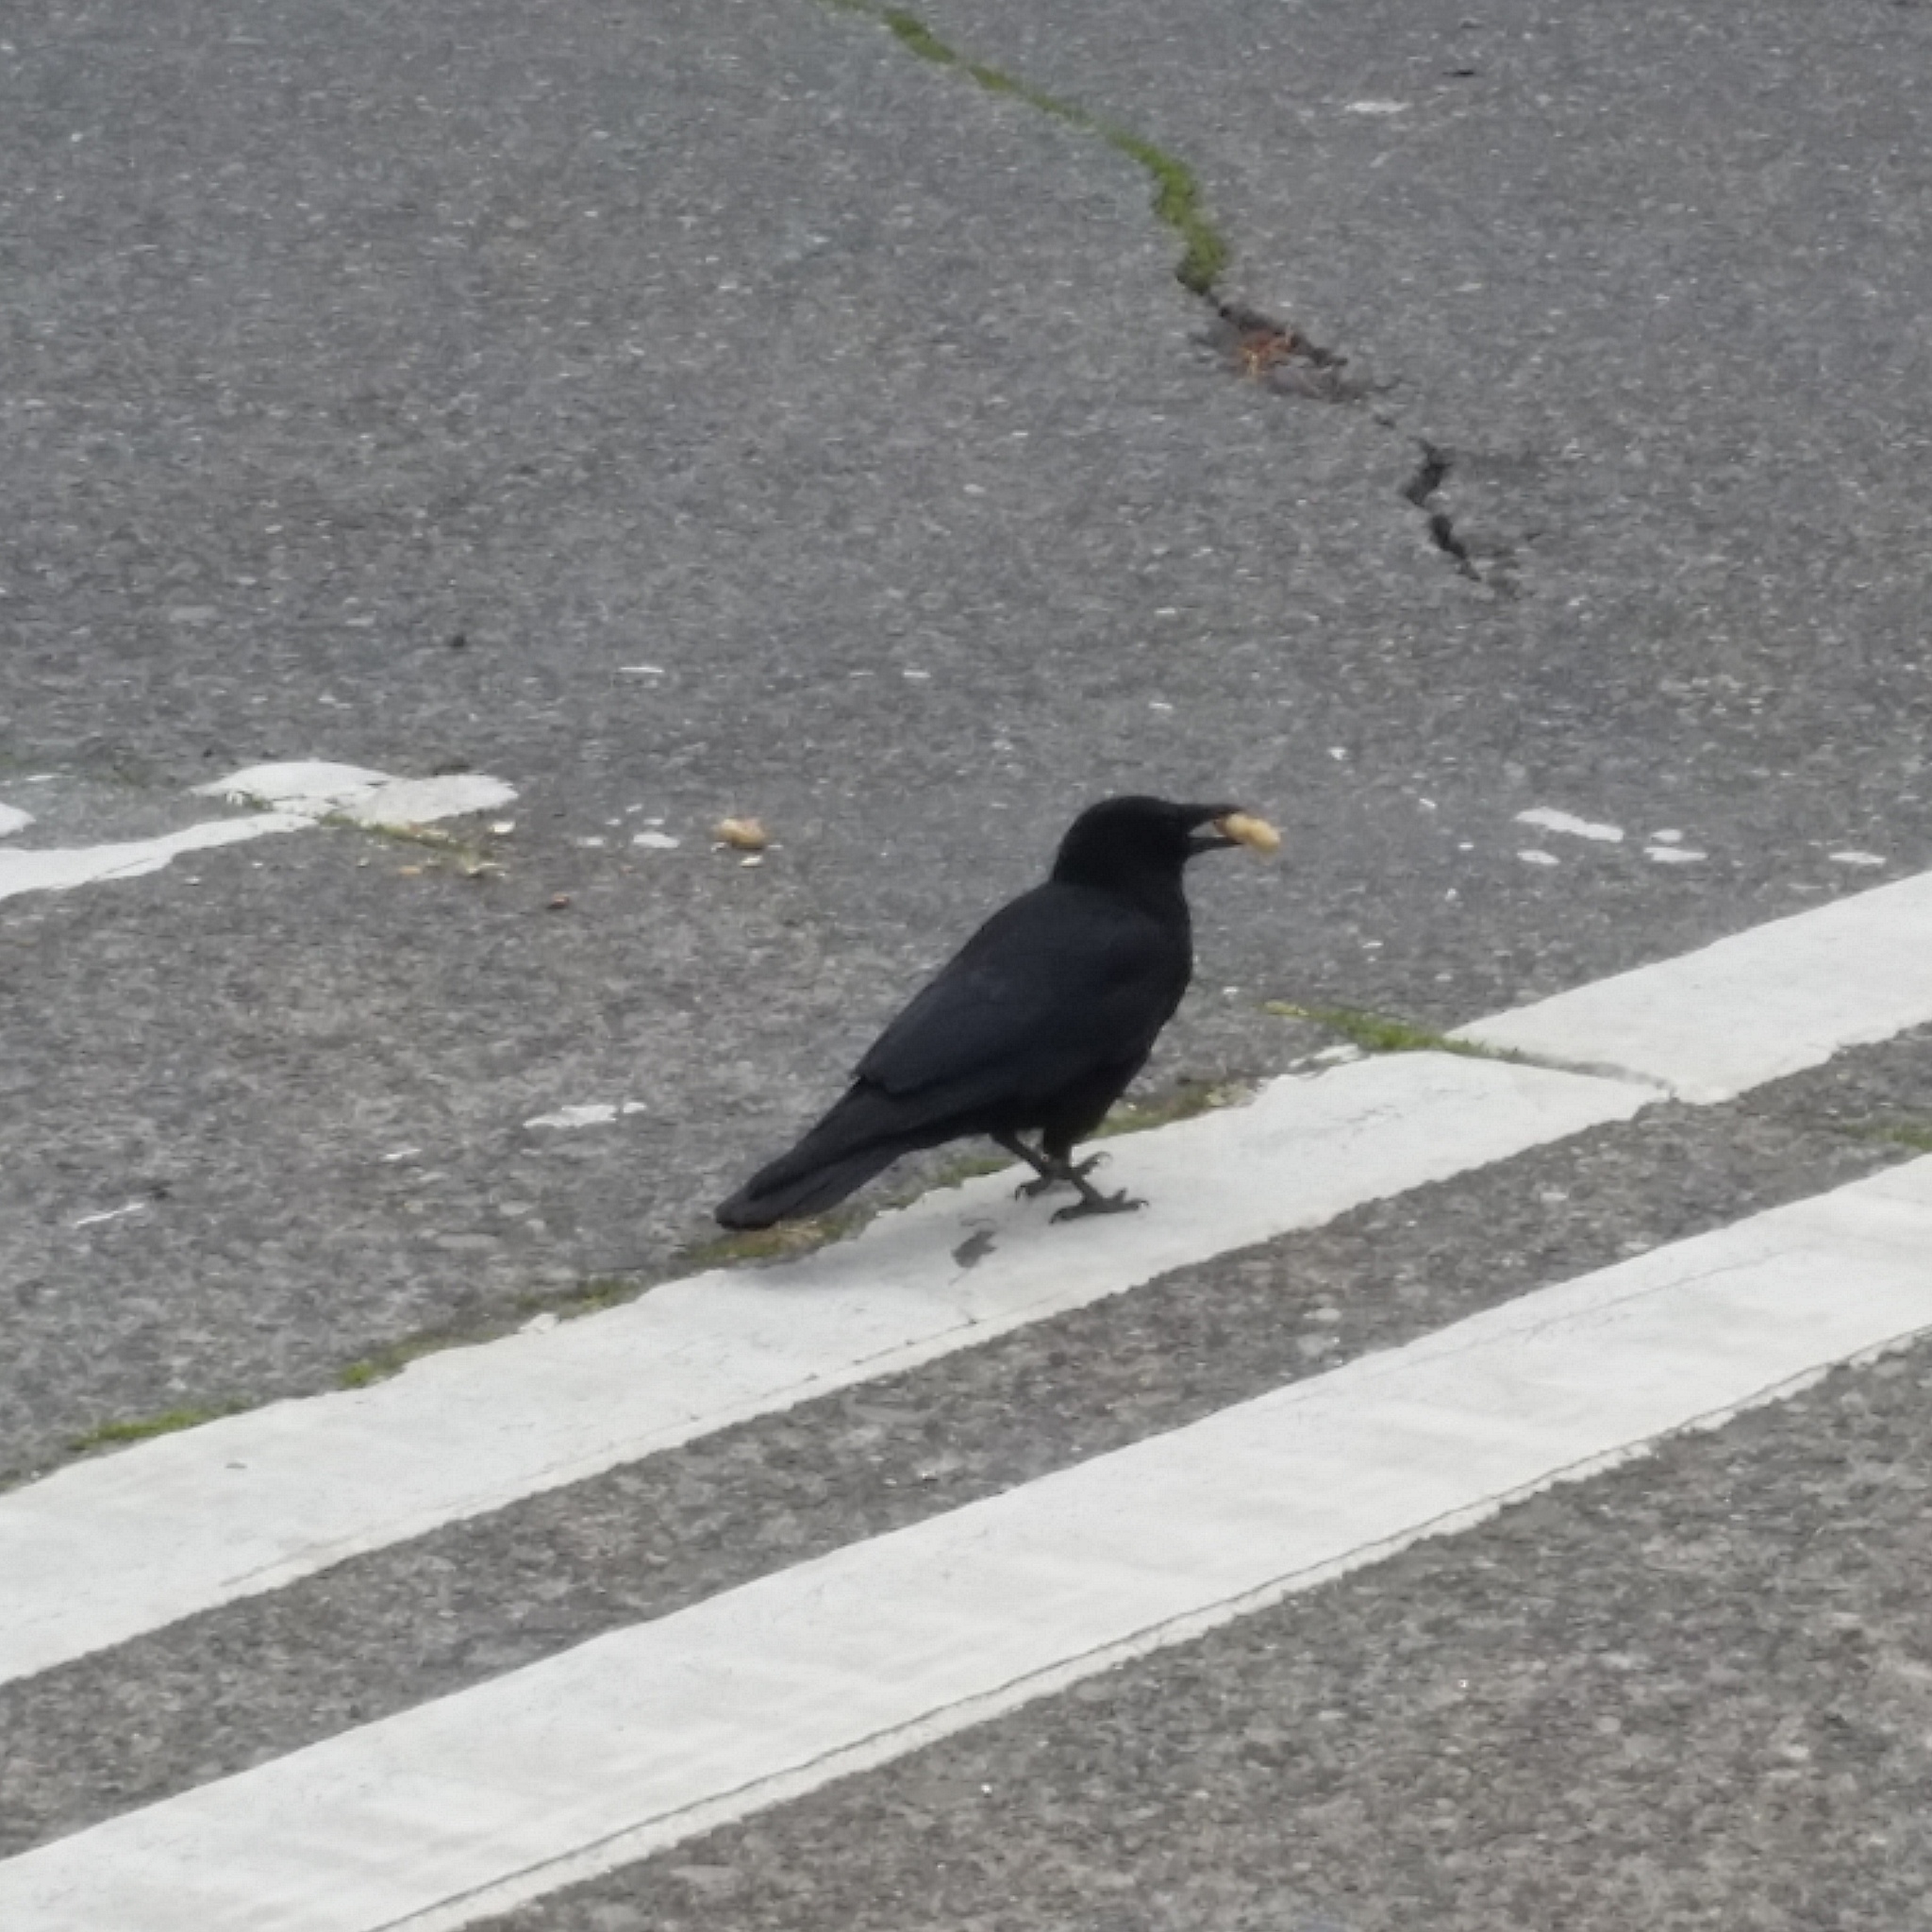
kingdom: Animalia
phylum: Chordata
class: Aves
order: Passeriformes
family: Corvidae
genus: Corvus
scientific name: Corvus brachyrhynchos
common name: American crow
